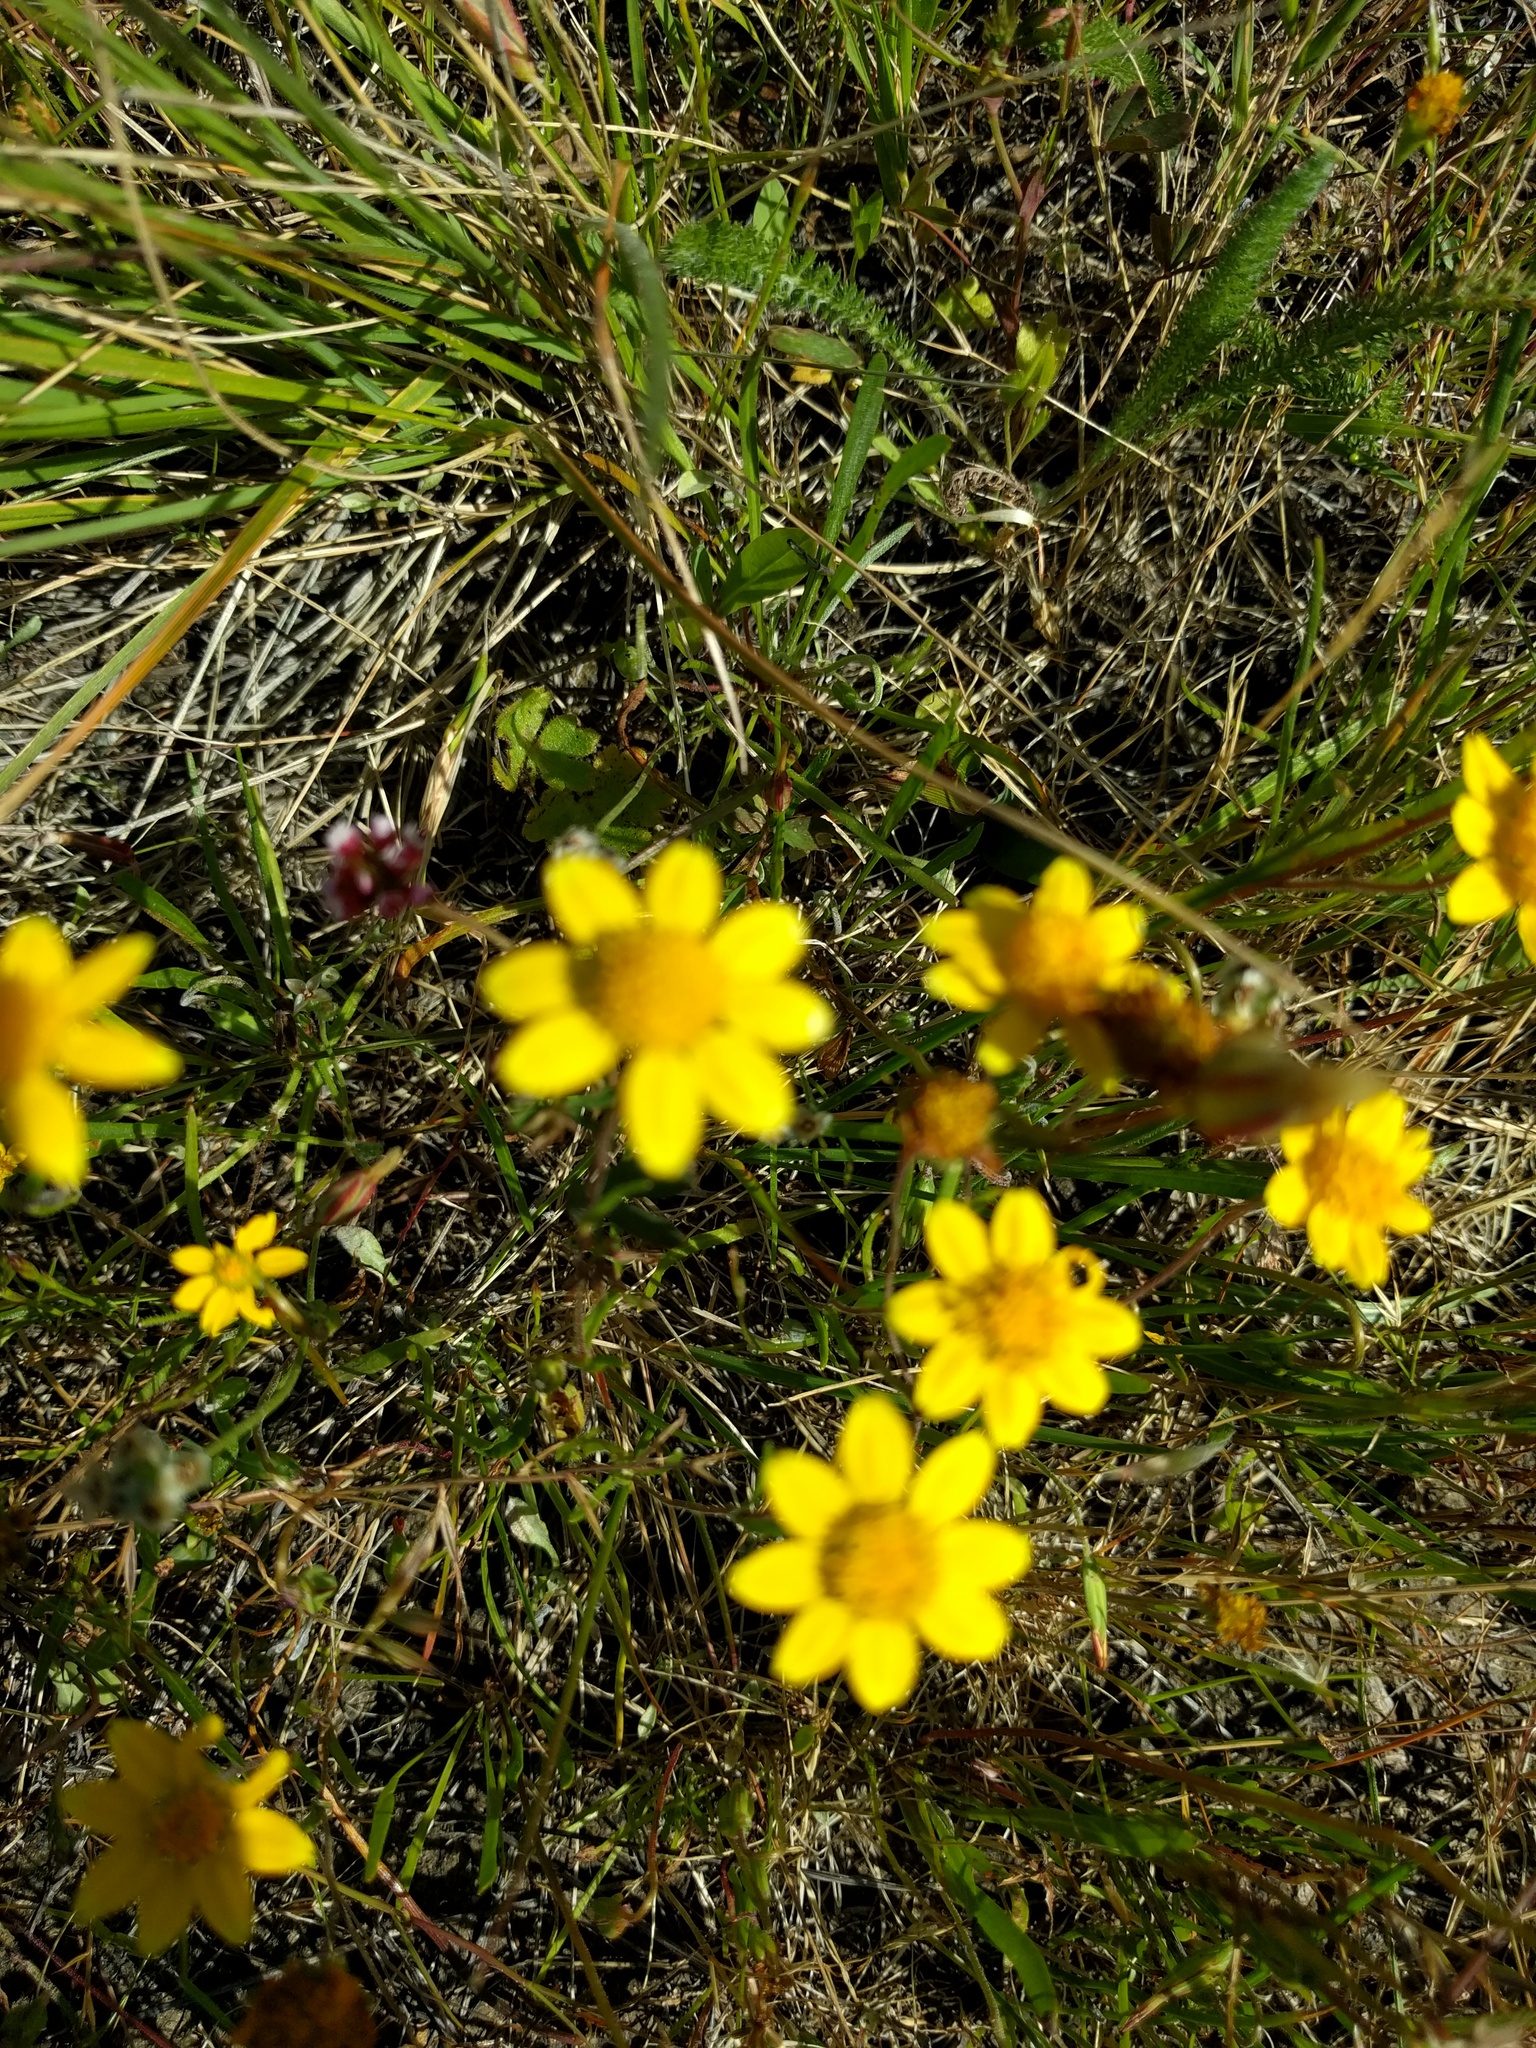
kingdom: Plantae
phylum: Tracheophyta
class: Magnoliopsida
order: Asterales
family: Asteraceae
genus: Lasthenia
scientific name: Lasthenia californica
